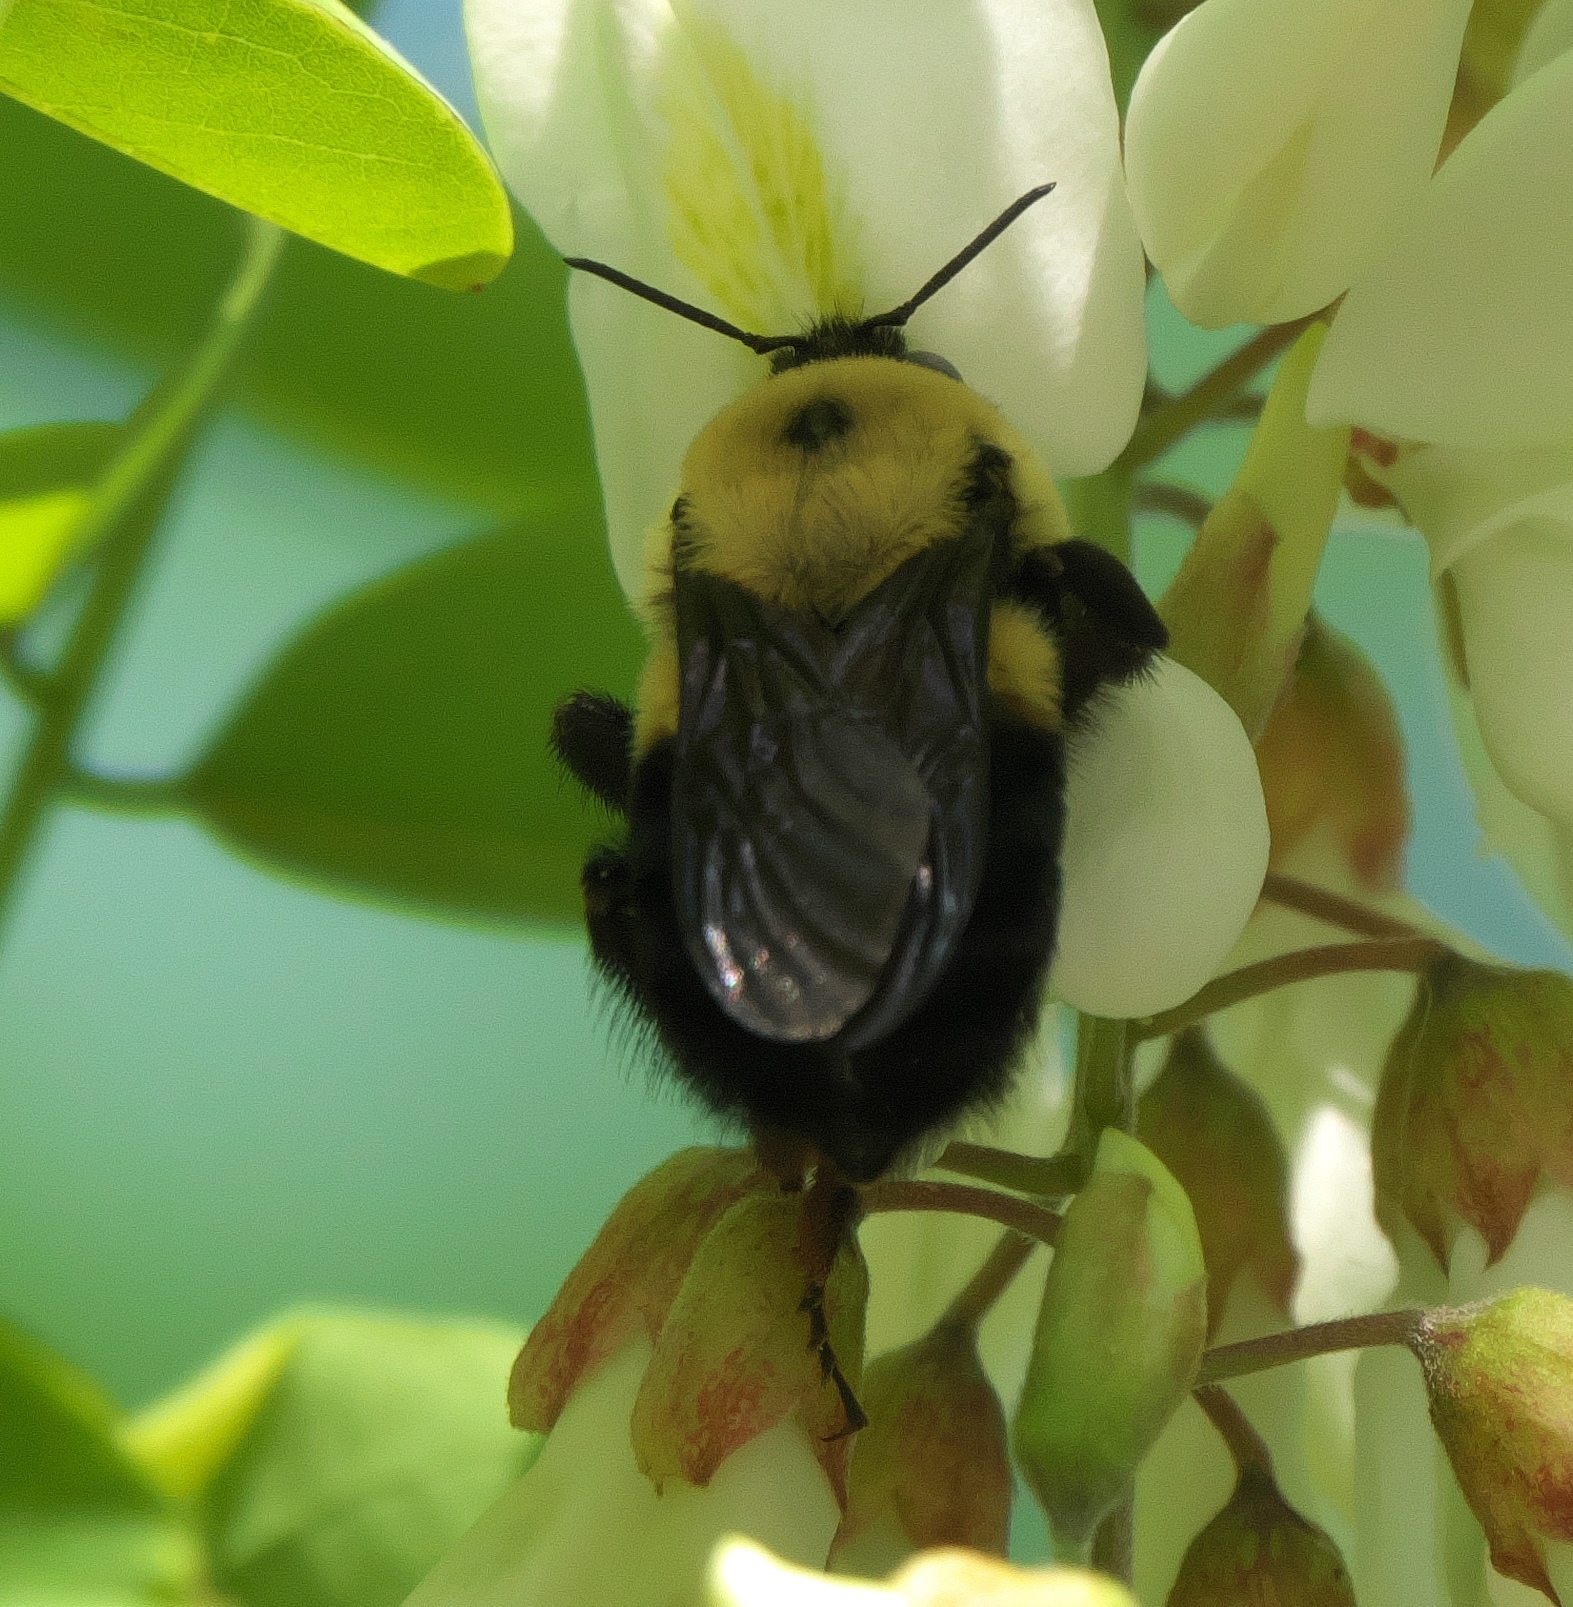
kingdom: Animalia
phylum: Arthropoda
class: Insecta
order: Hymenoptera
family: Apidae
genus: Bombus
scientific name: Bombus griseocollis
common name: Brown-belted bumble bee
